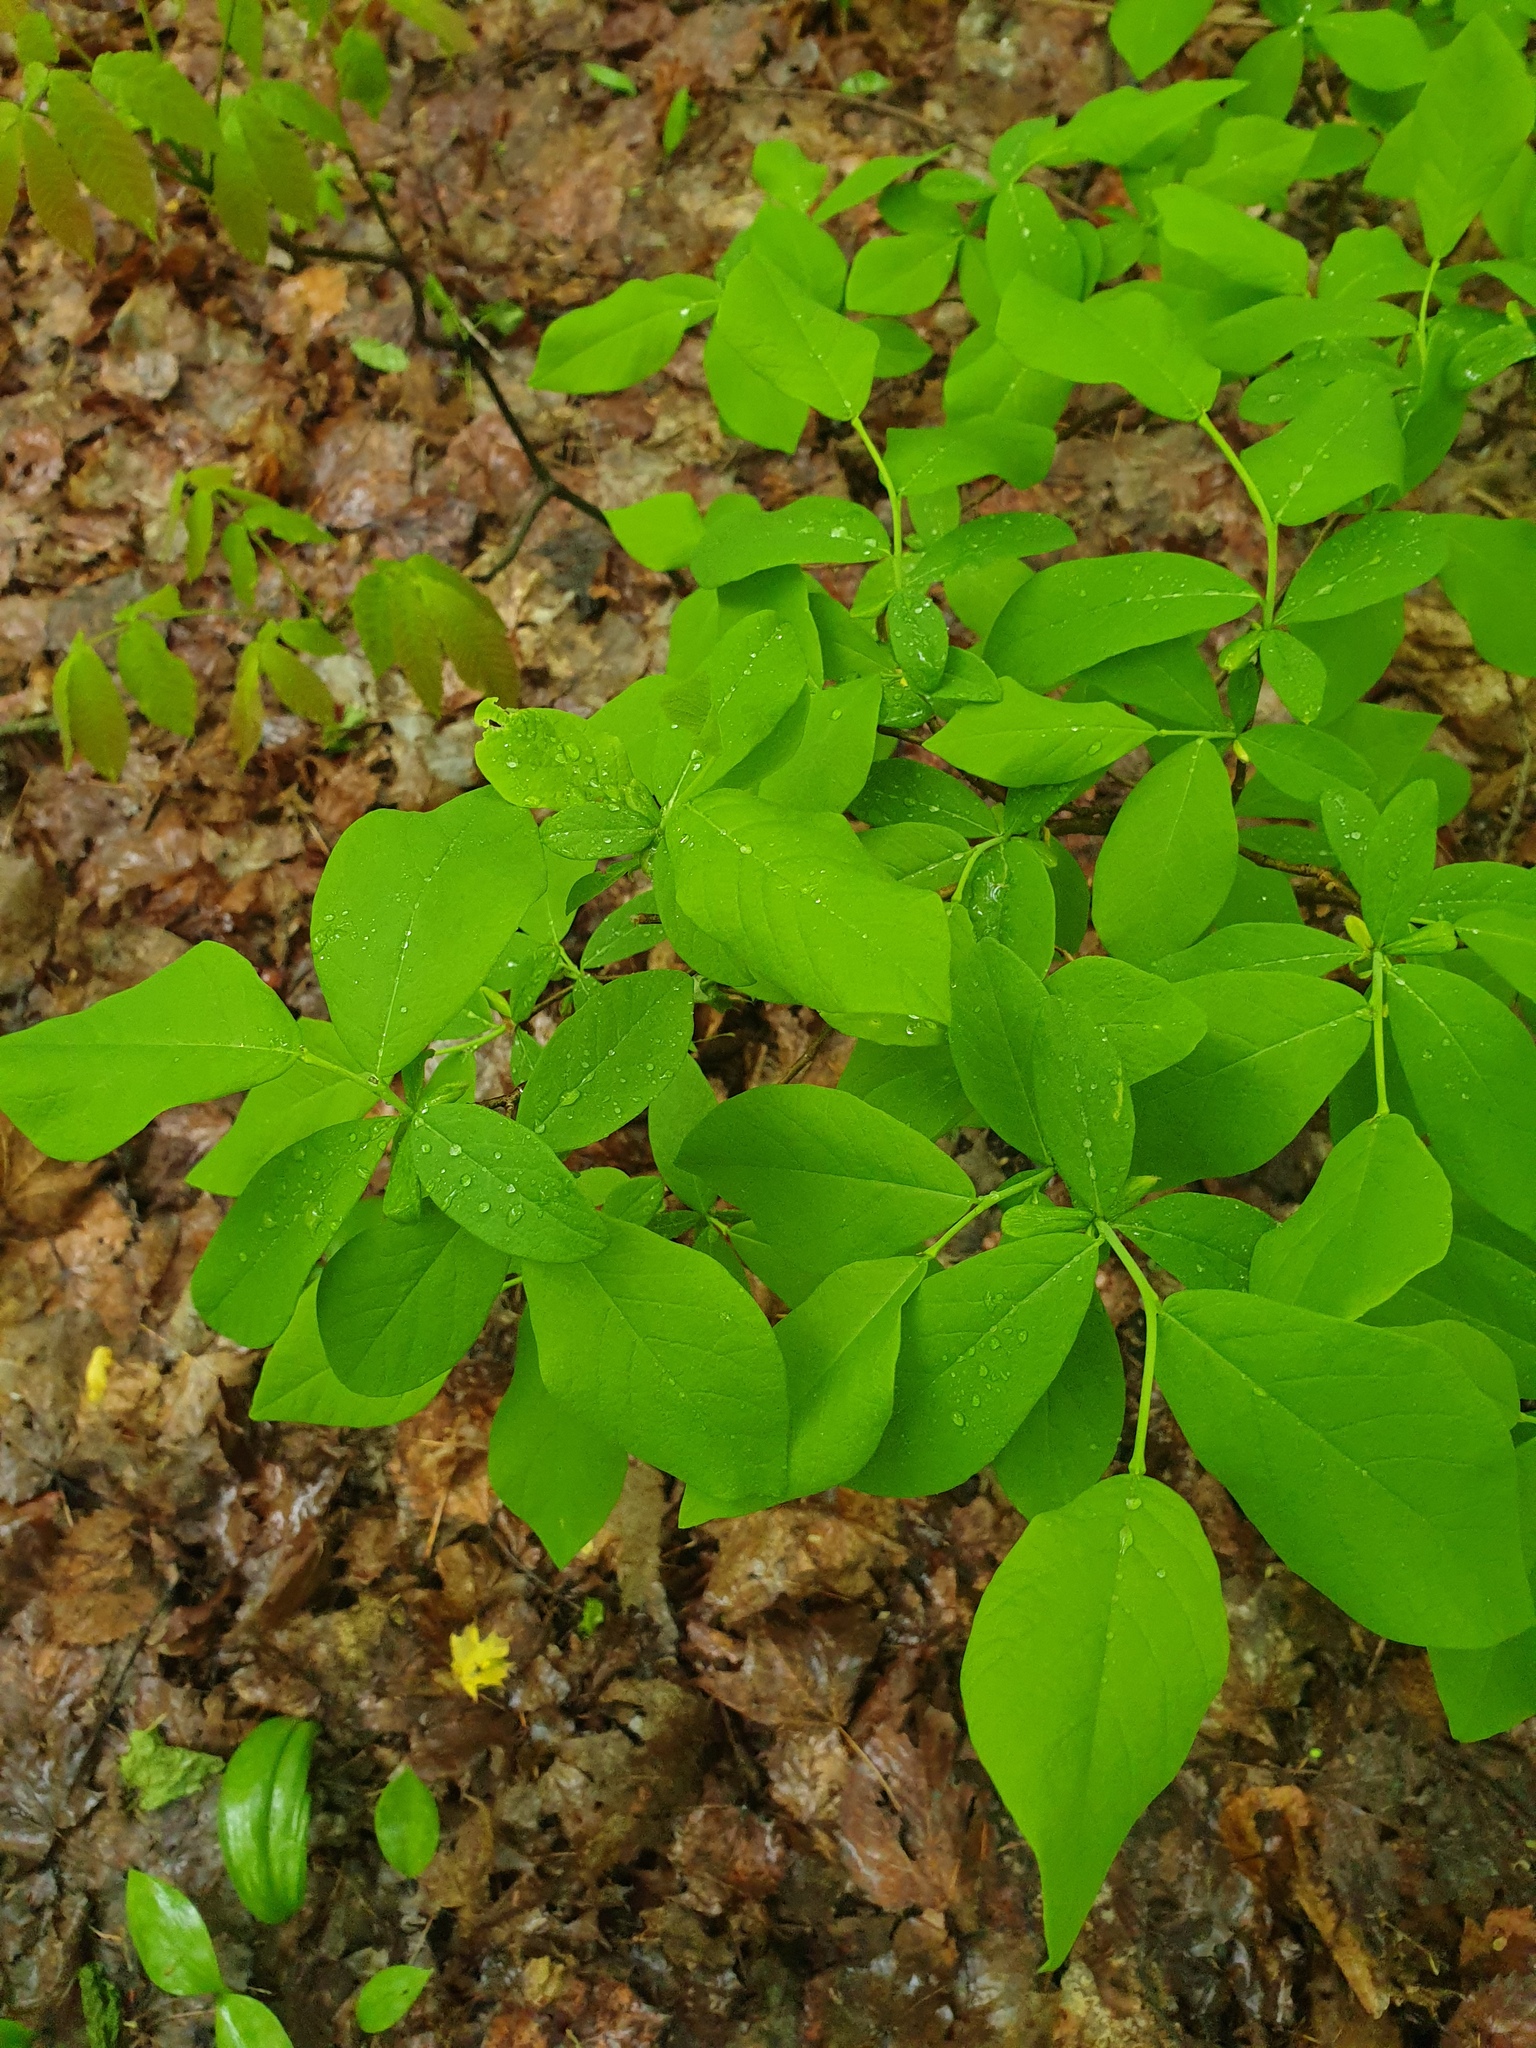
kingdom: Plantae
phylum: Tracheophyta
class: Magnoliopsida
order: Malvales
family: Thymelaeaceae
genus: Dirca
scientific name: Dirca palustris
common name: Leatherwood
